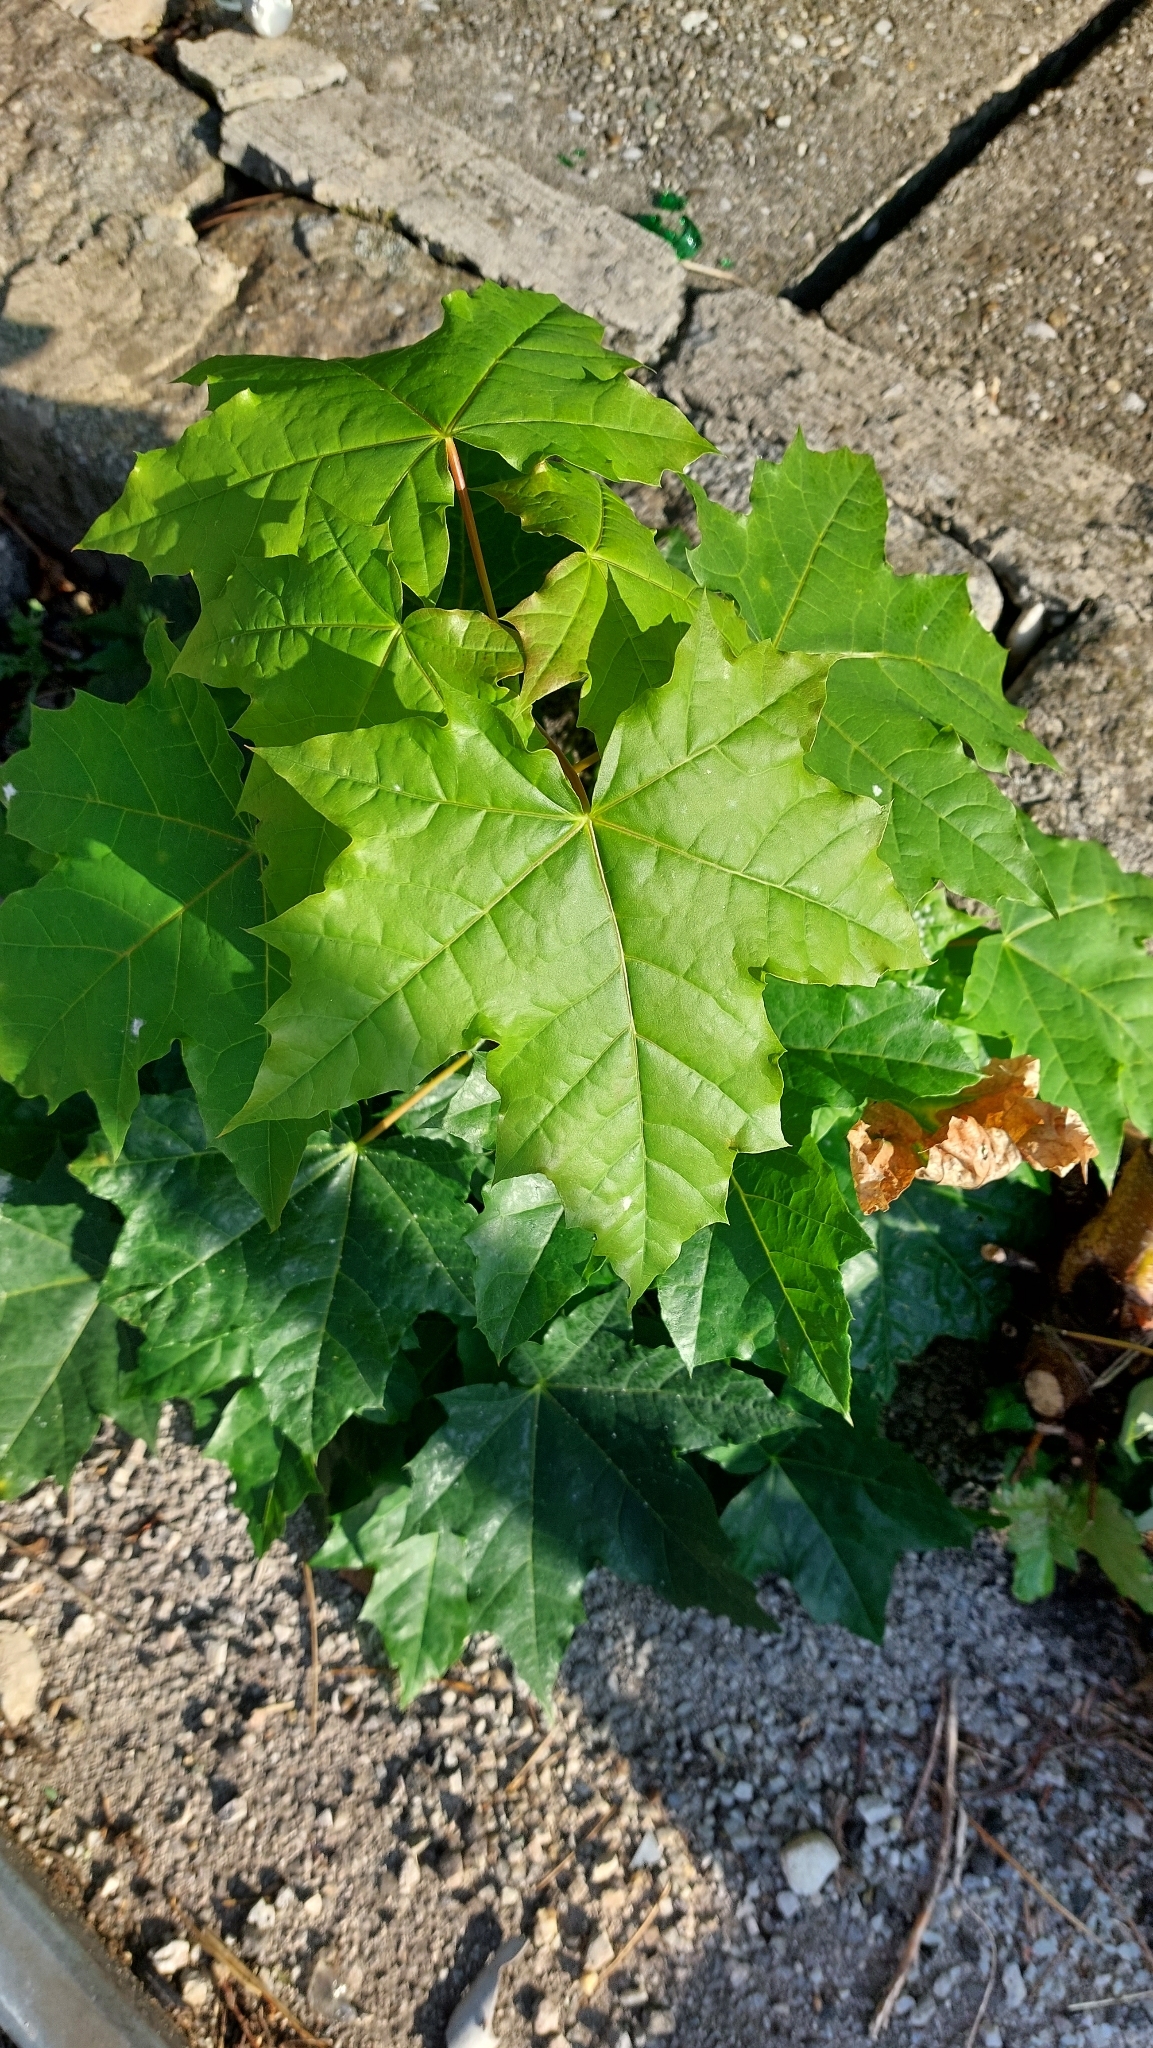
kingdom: Plantae
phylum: Tracheophyta
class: Magnoliopsida
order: Sapindales
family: Sapindaceae
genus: Acer
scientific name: Acer platanoides
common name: Norway maple
